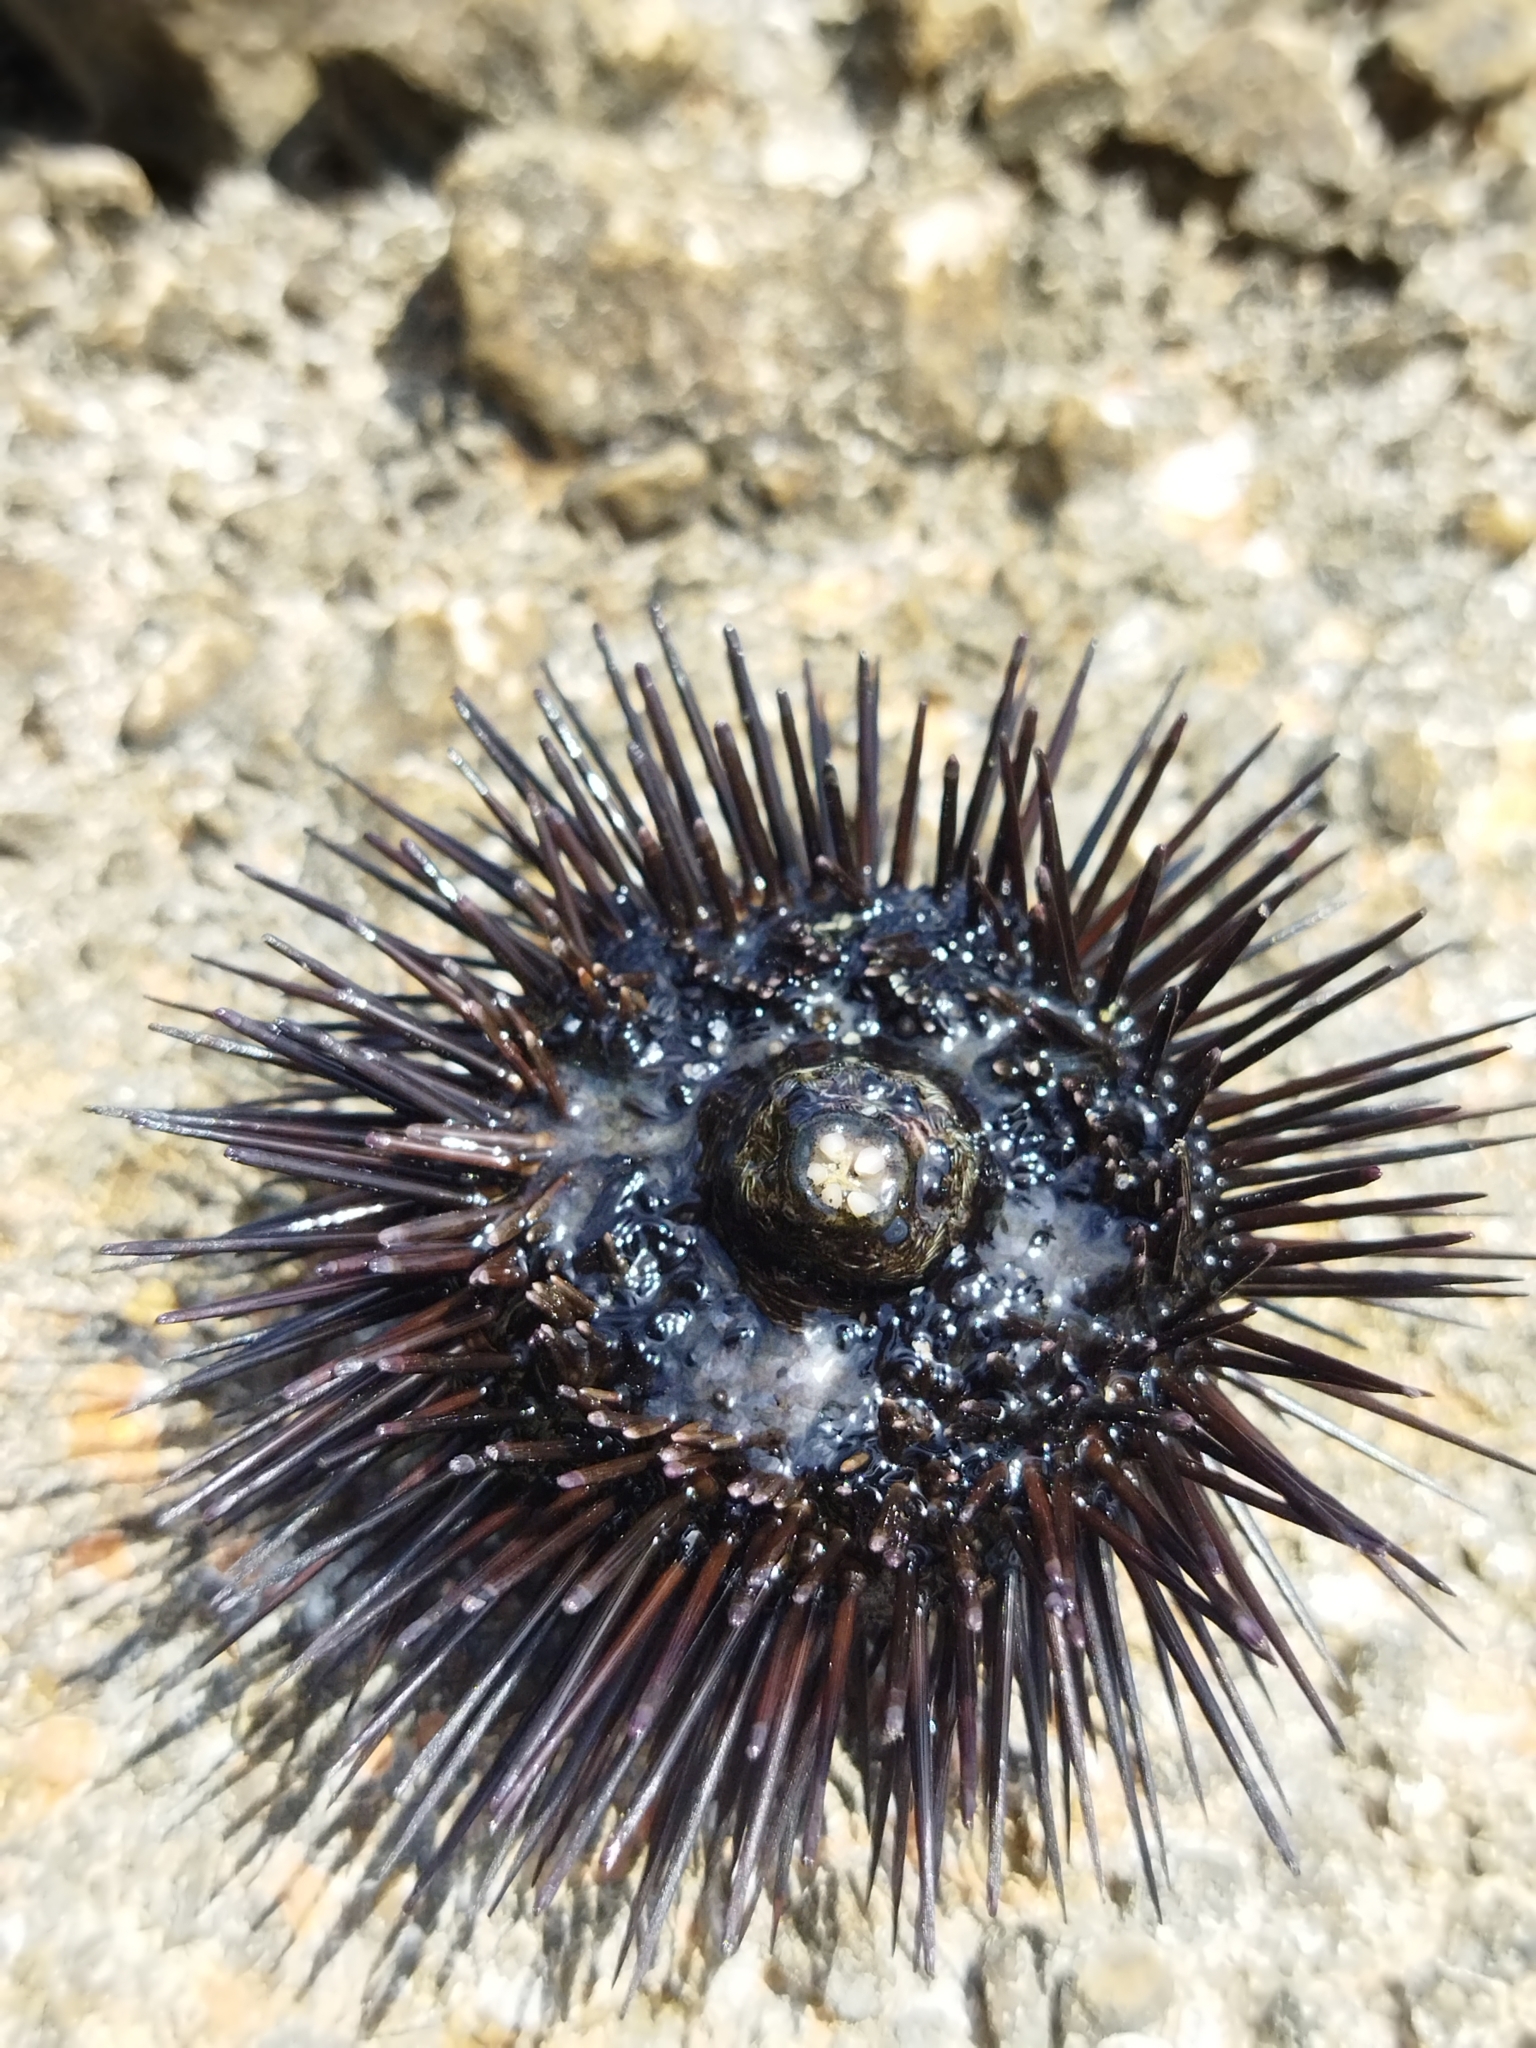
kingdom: Animalia
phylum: Echinodermata
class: Echinoidea
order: Arbacioida
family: Arbaciidae
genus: Arbacia
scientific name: Arbacia lixula
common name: Black sea urchin
